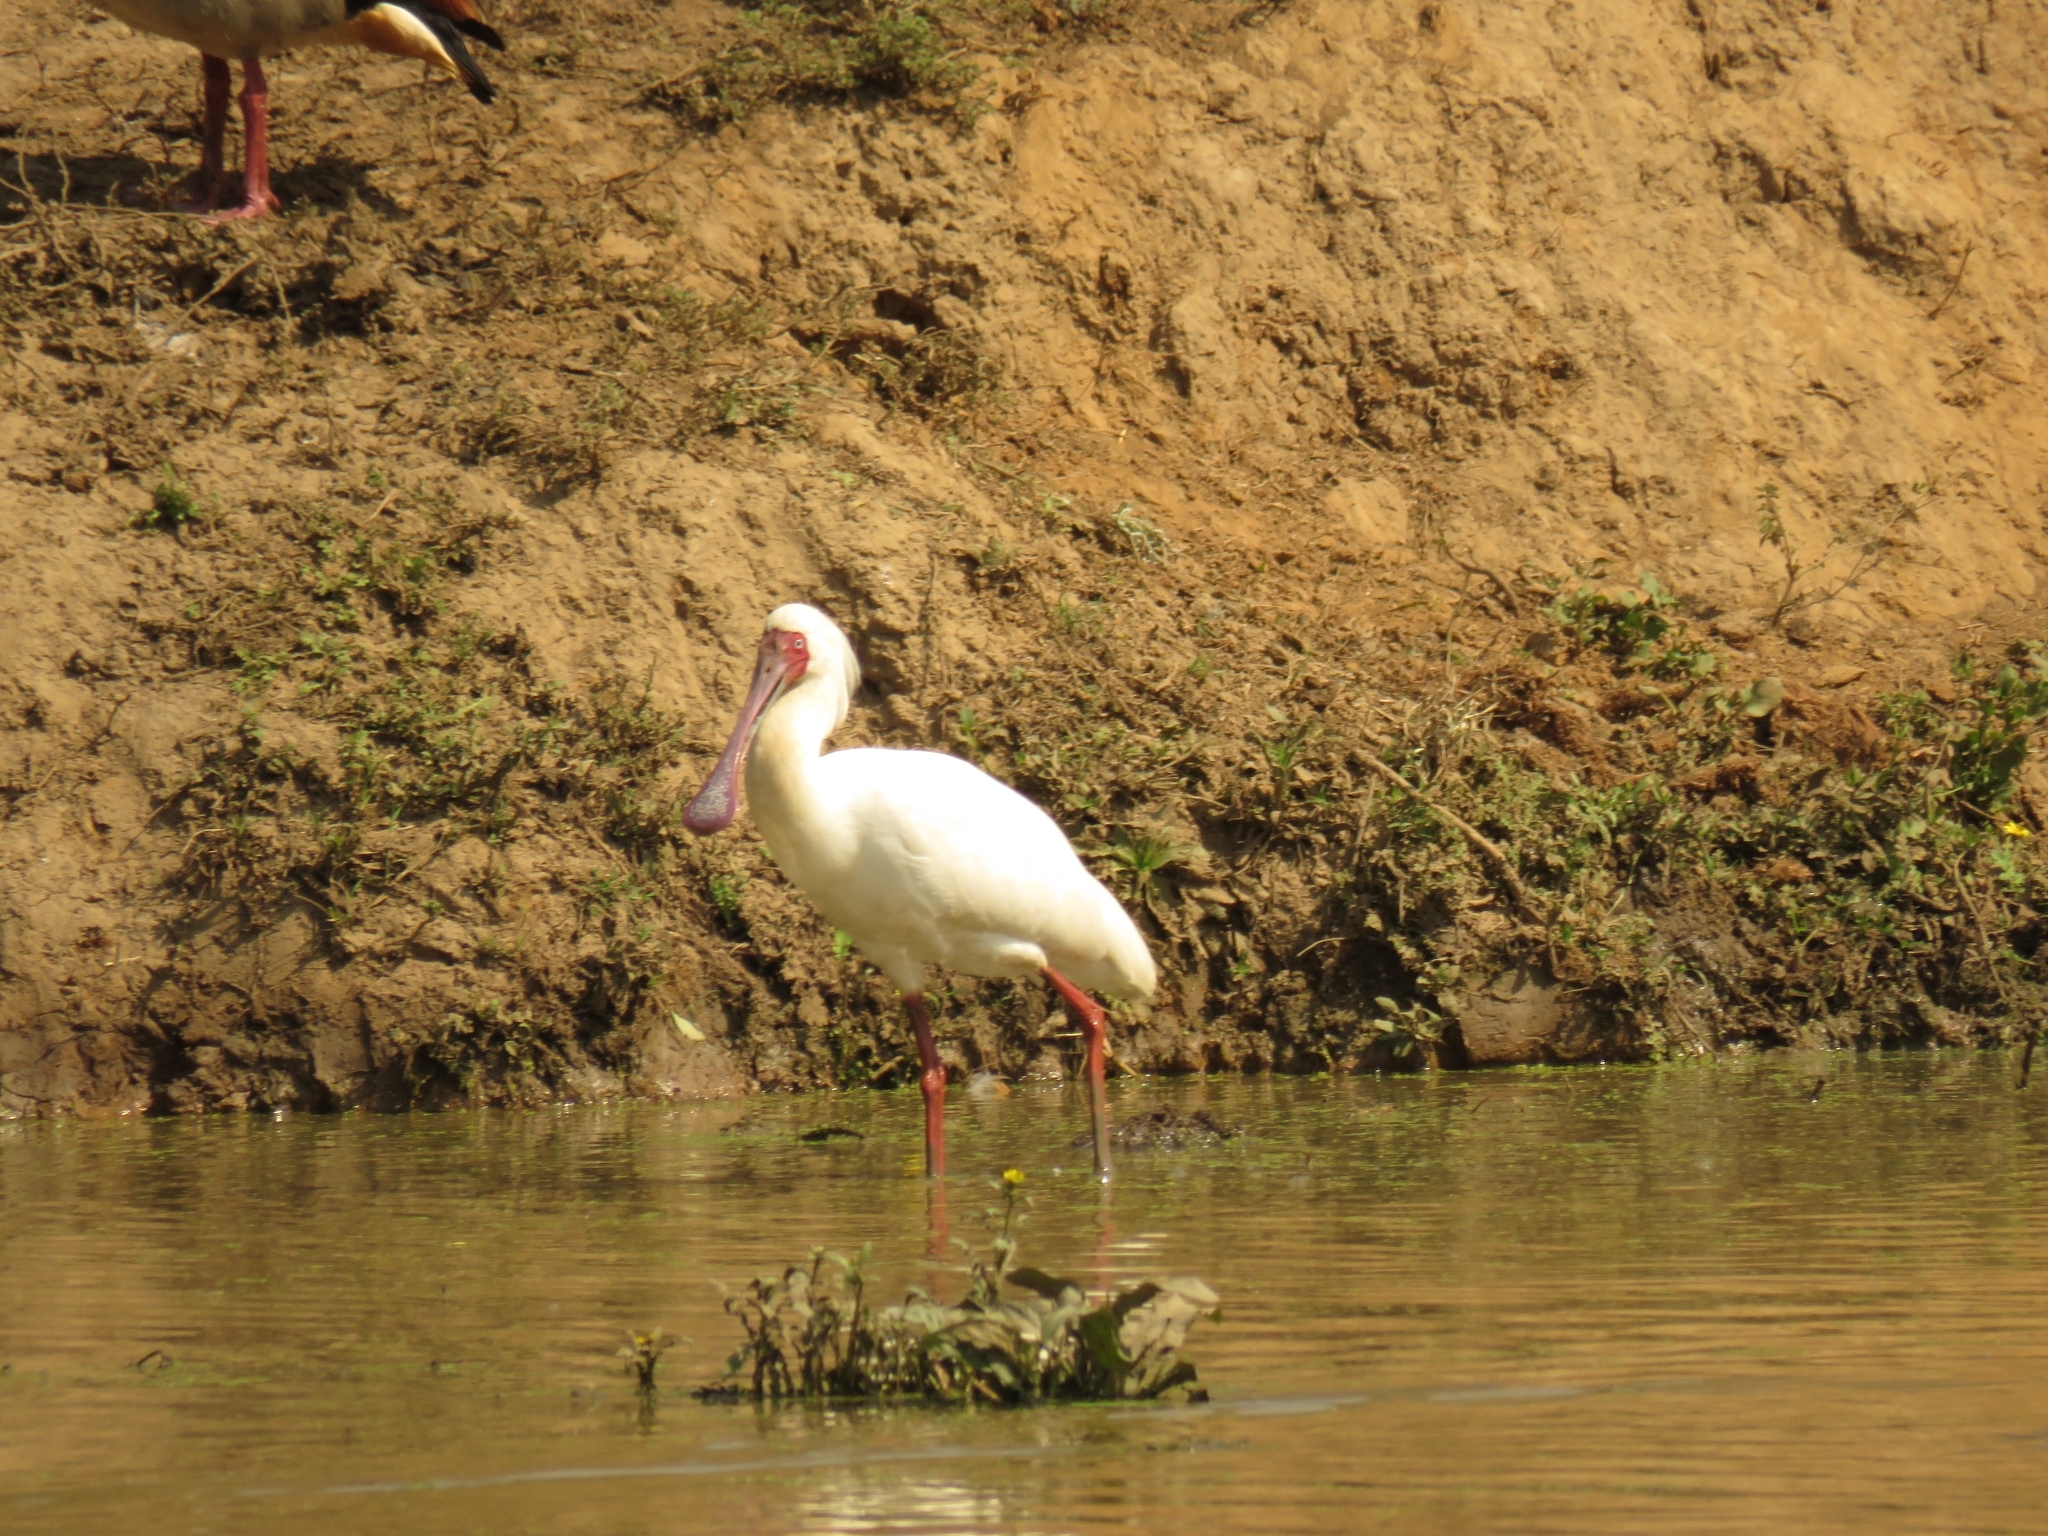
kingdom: Animalia
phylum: Chordata
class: Aves
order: Pelecaniformes
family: Threskiornithidae
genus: Platalea
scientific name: Platalea alba
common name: African spoonbill
